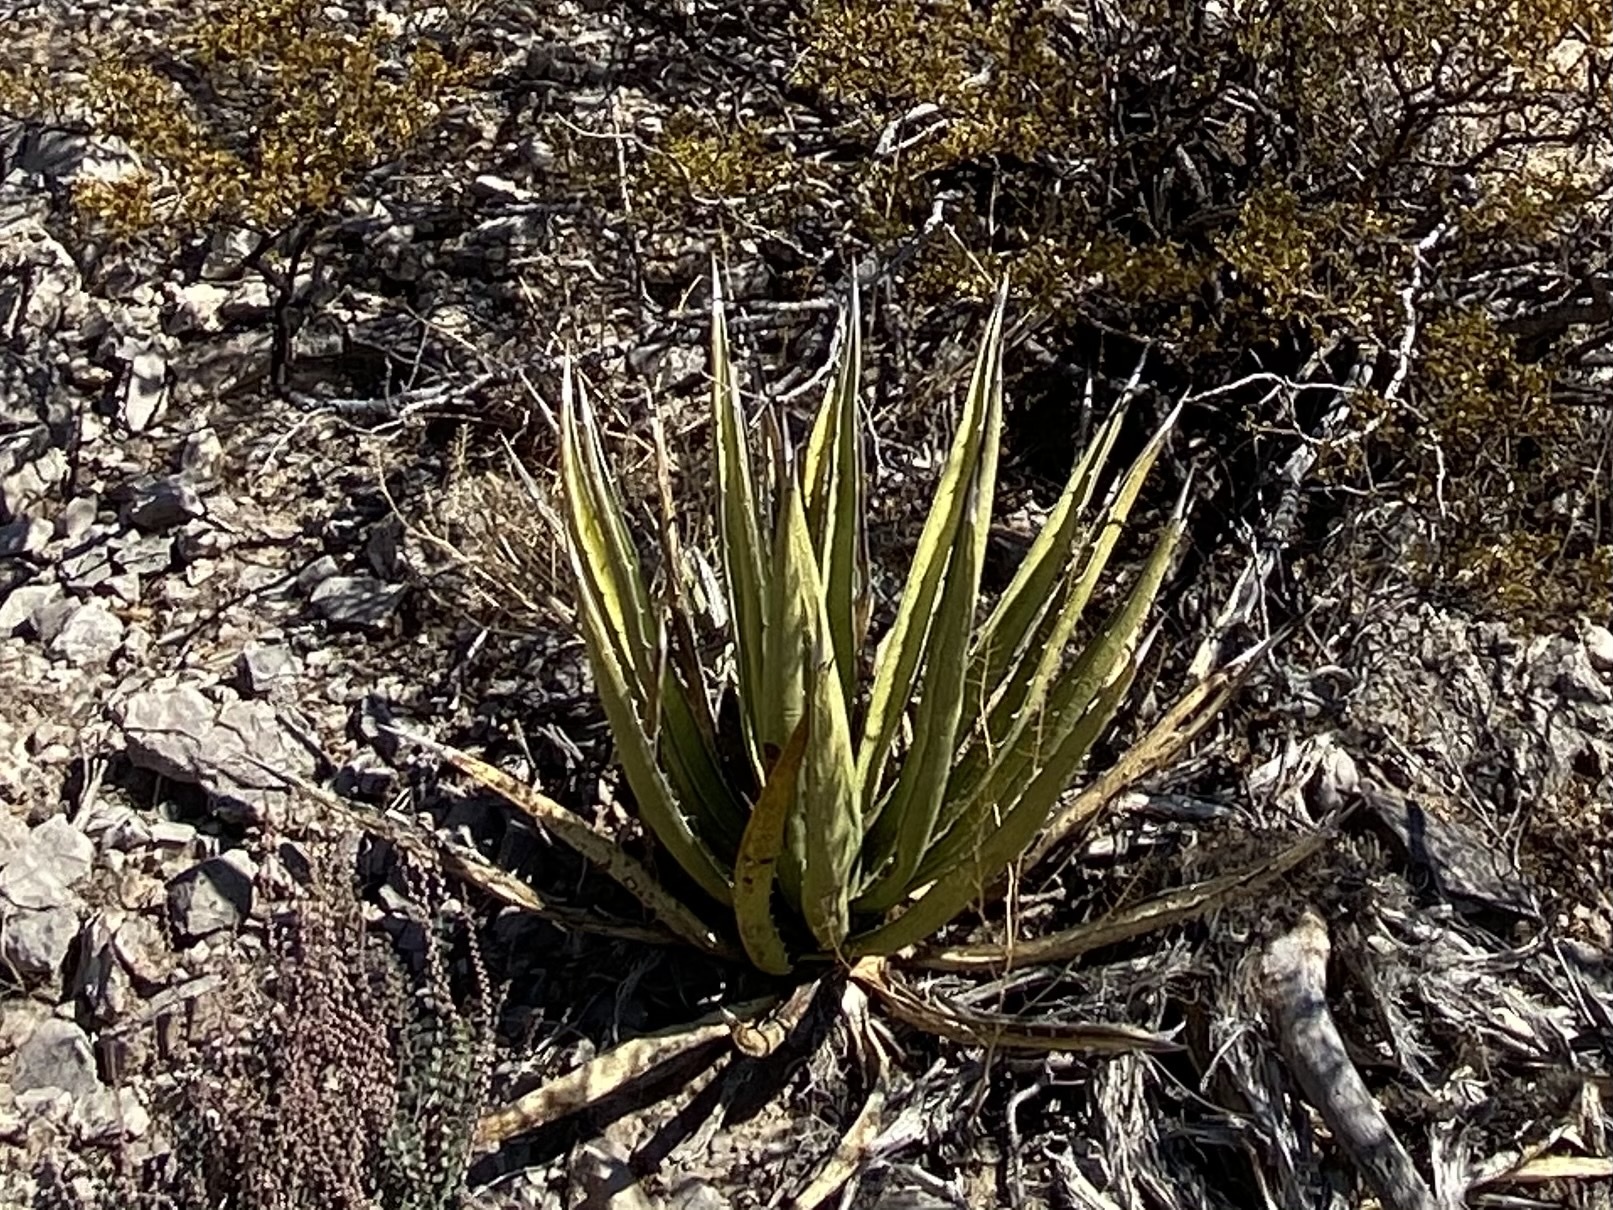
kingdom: Plantae
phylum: Tracheophyta
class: Liliopsida
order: Asparagales
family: Asparagaceae
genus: Agave
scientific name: Agave lechuguilla
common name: Lecheguilla agave
